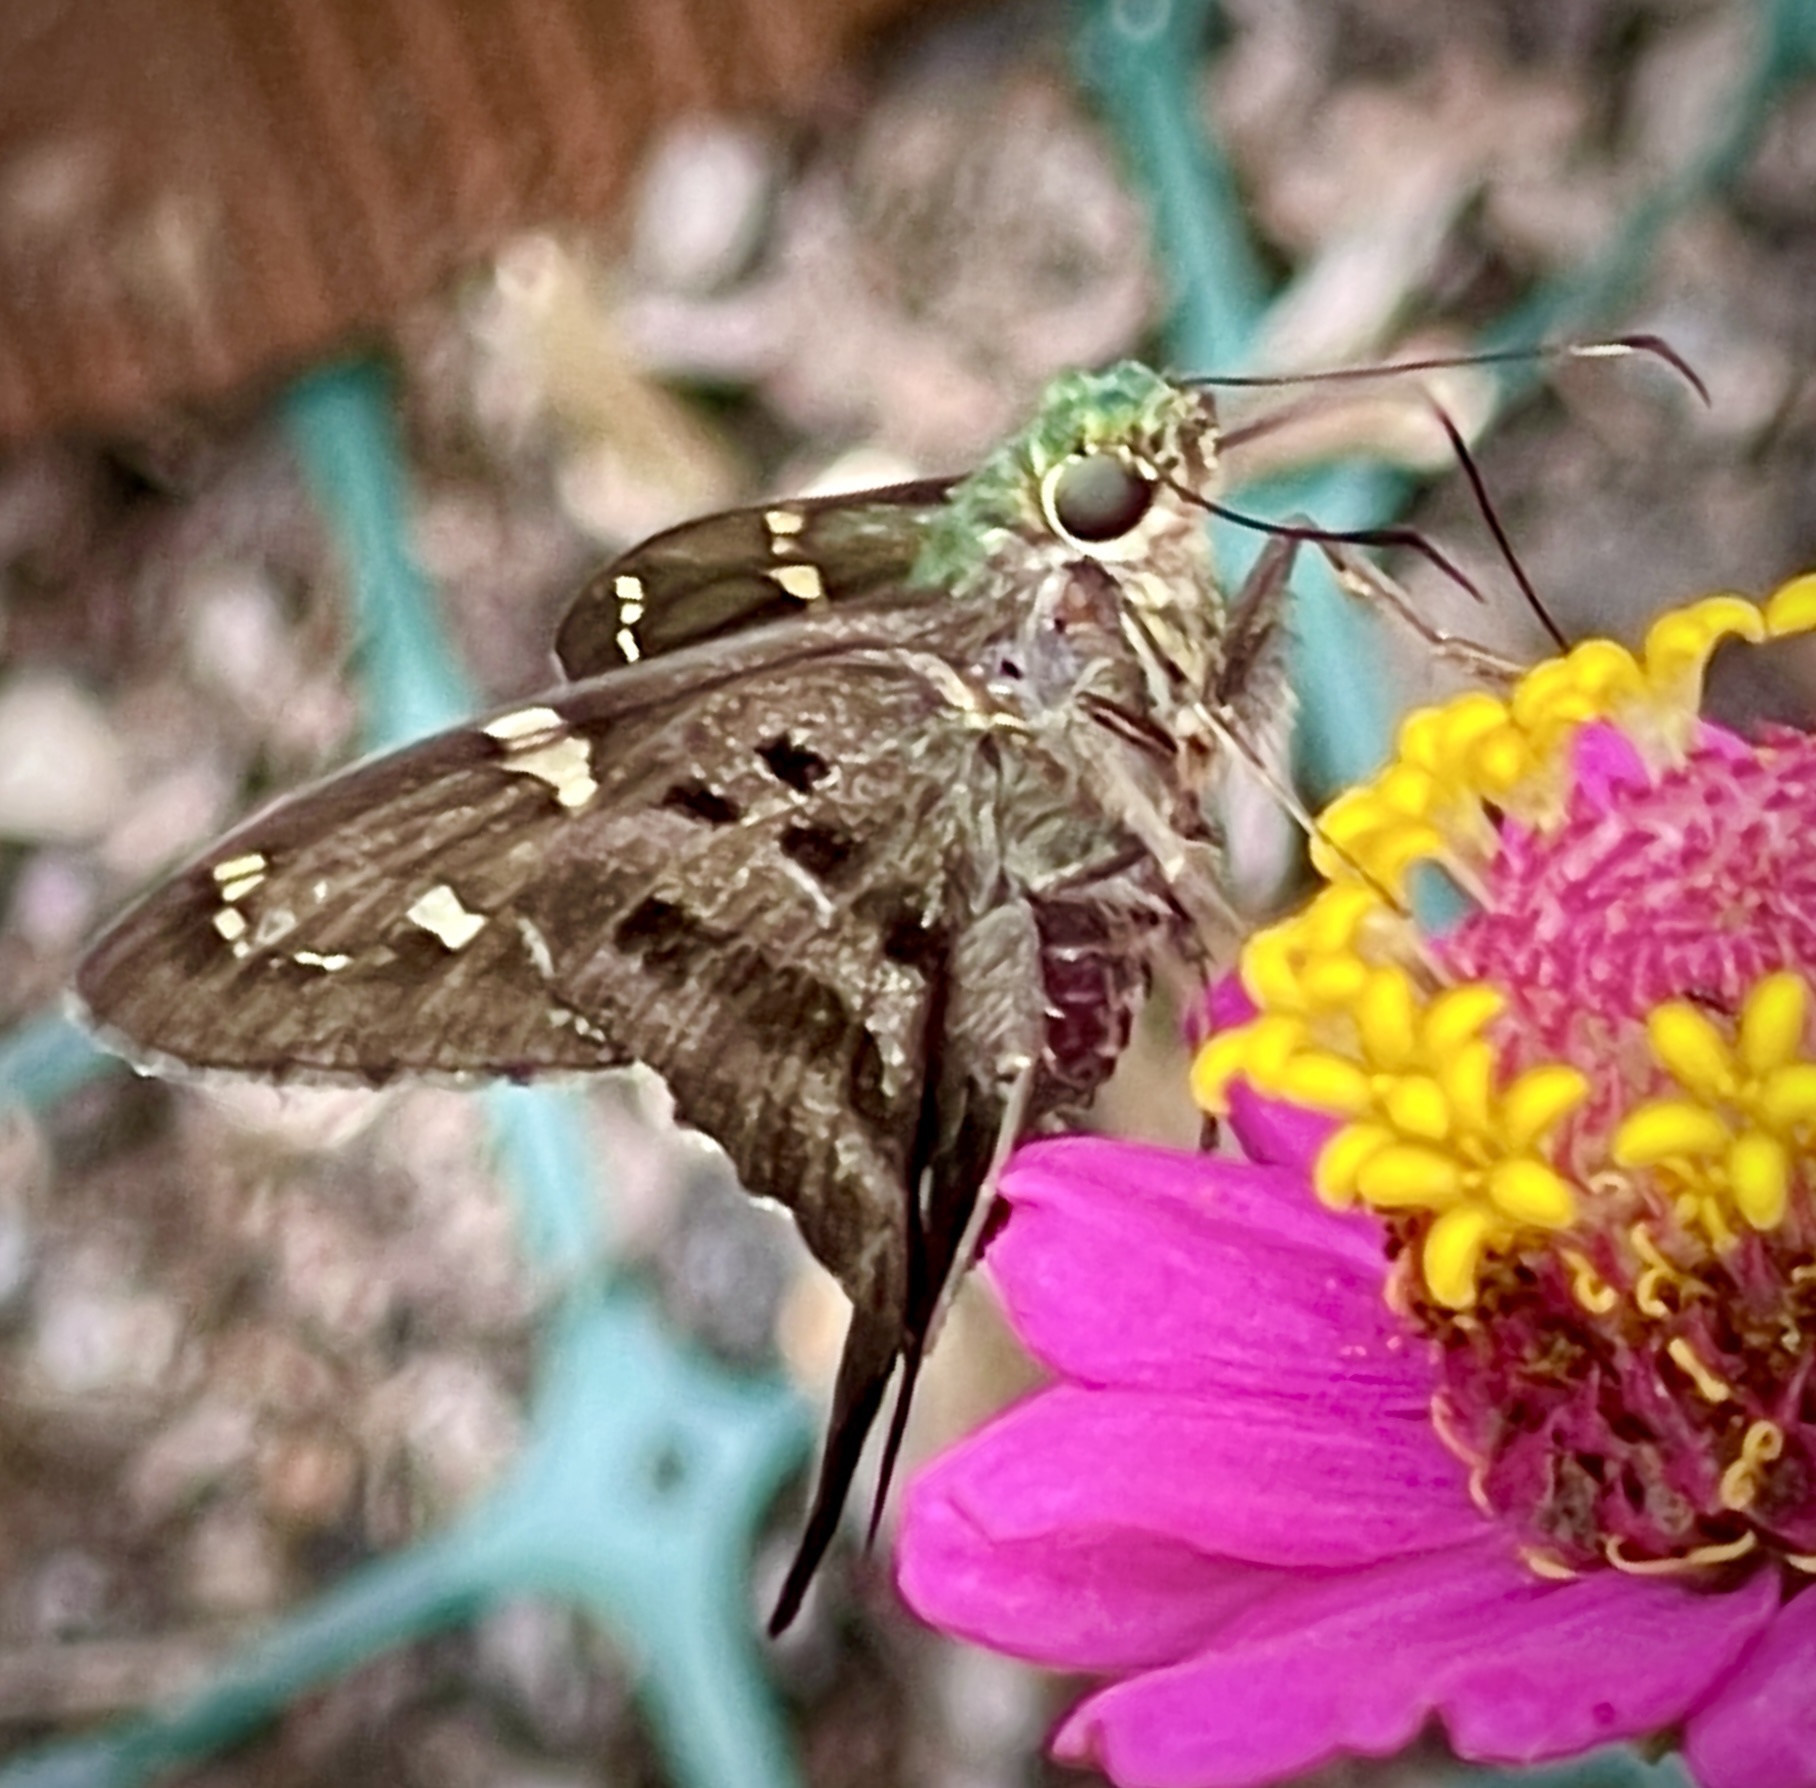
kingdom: Animalia
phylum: Arthropoda
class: Insecta
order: Lepidoptera
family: Hesperiidae
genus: Urbanus
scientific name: Urbanus proteus
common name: Long-tailed skipper
